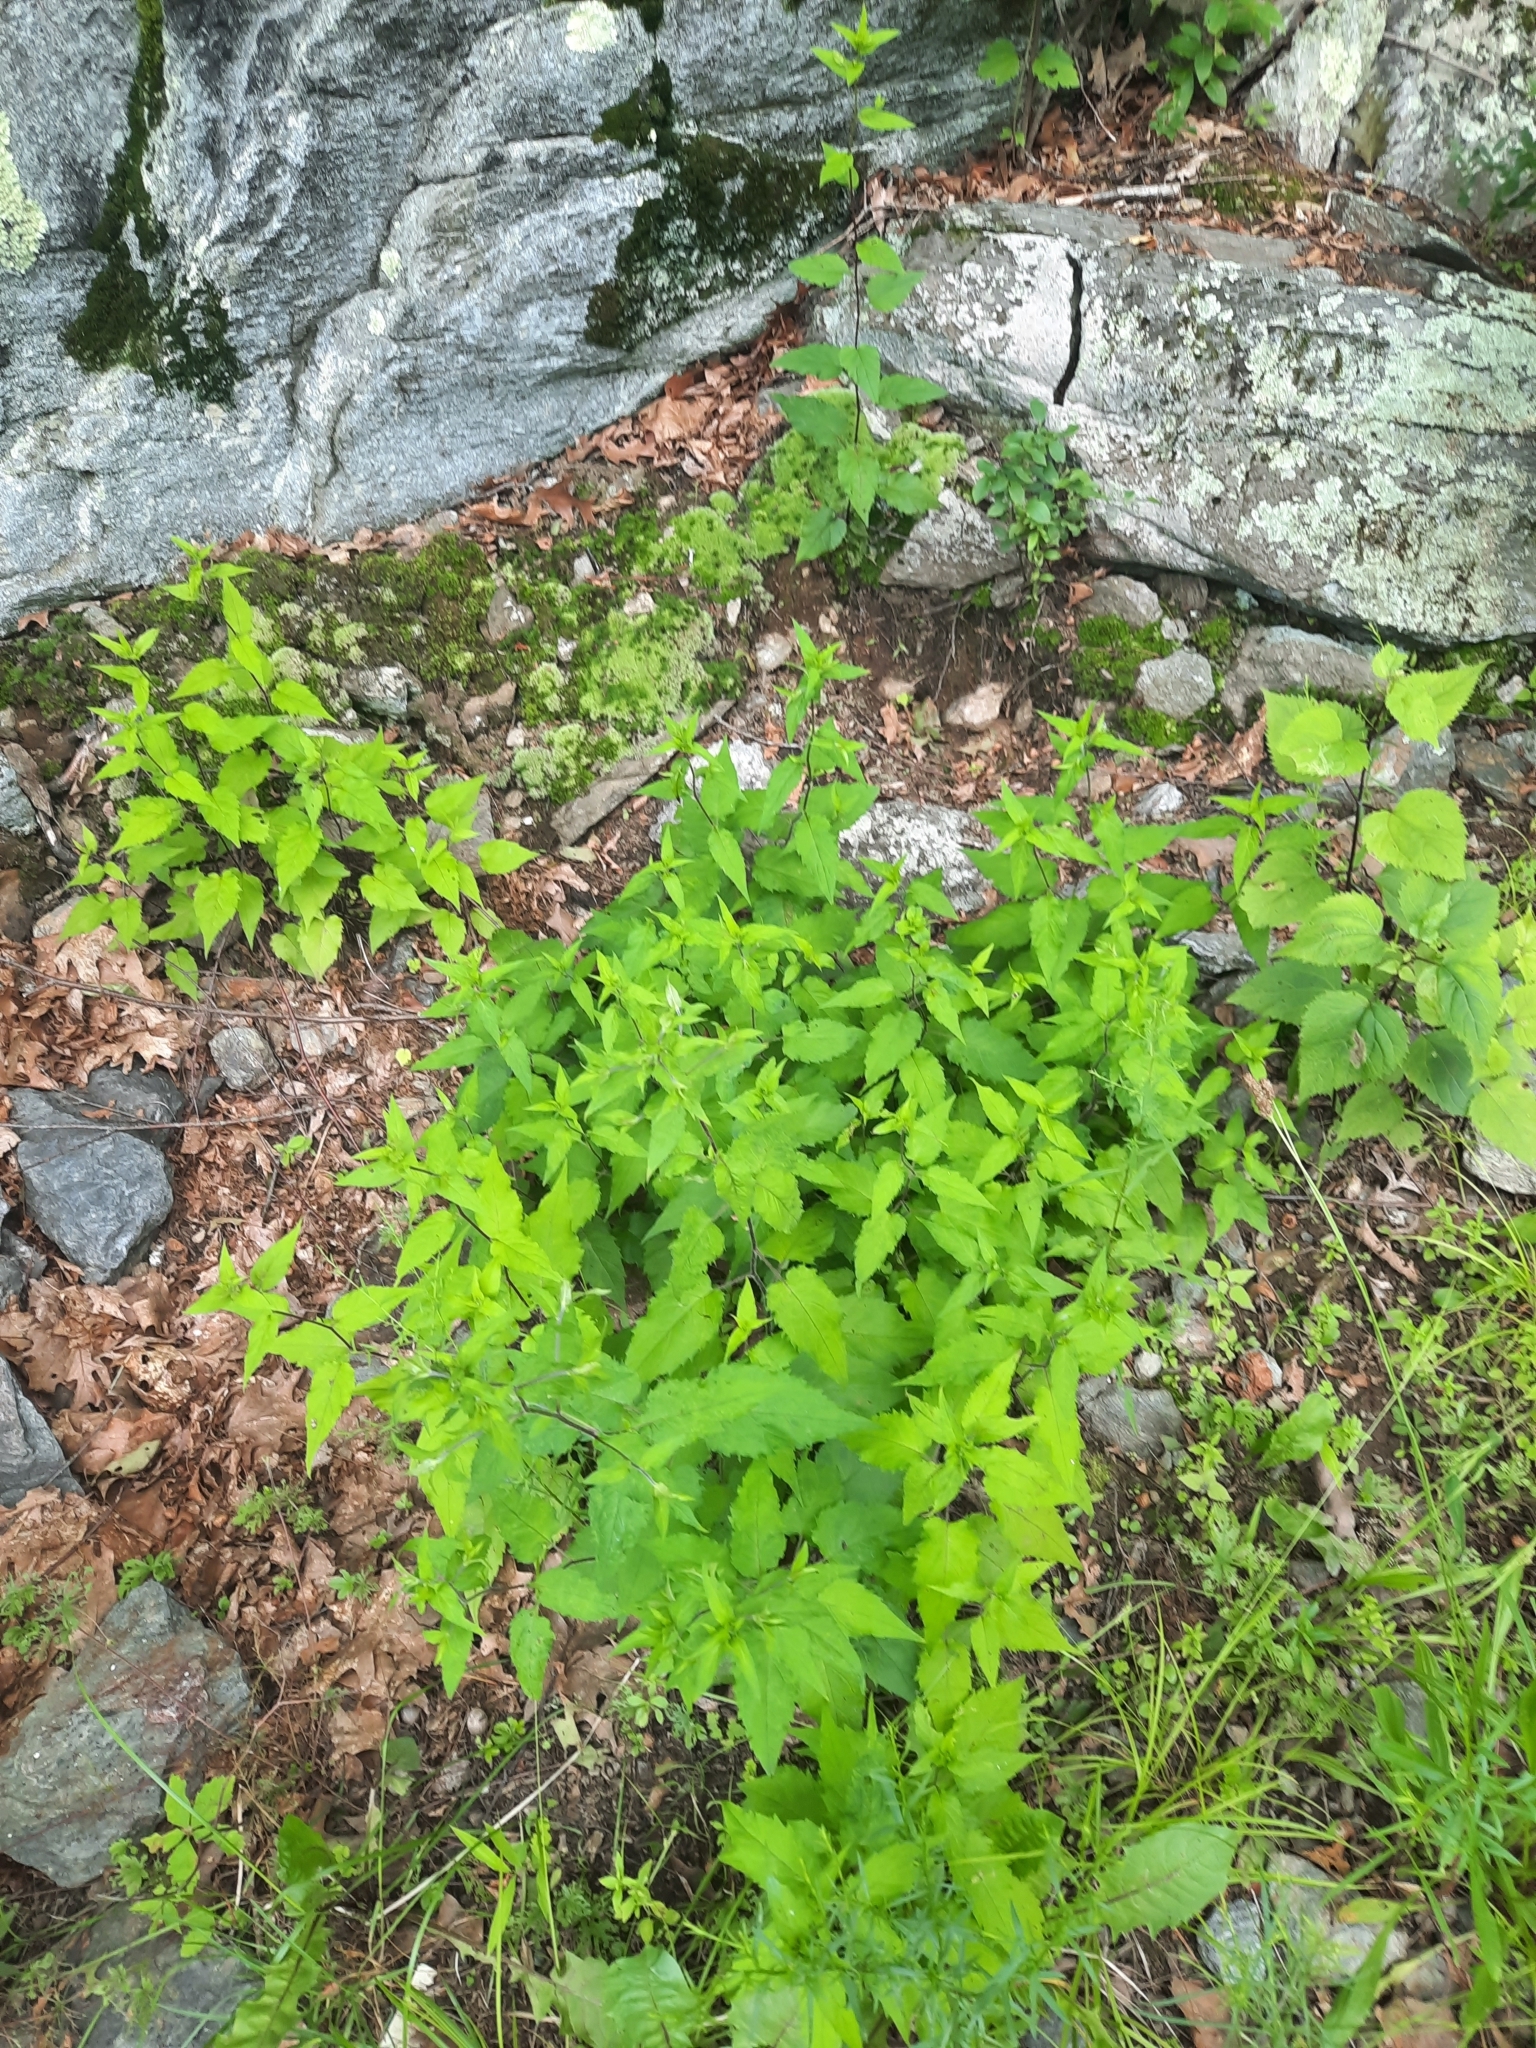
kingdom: Plantae
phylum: Tracheophyta
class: Magnoliopsida
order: Asterales
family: Asteraceae
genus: Eurybia
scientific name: Eurybia divaricata
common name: White wood aster
